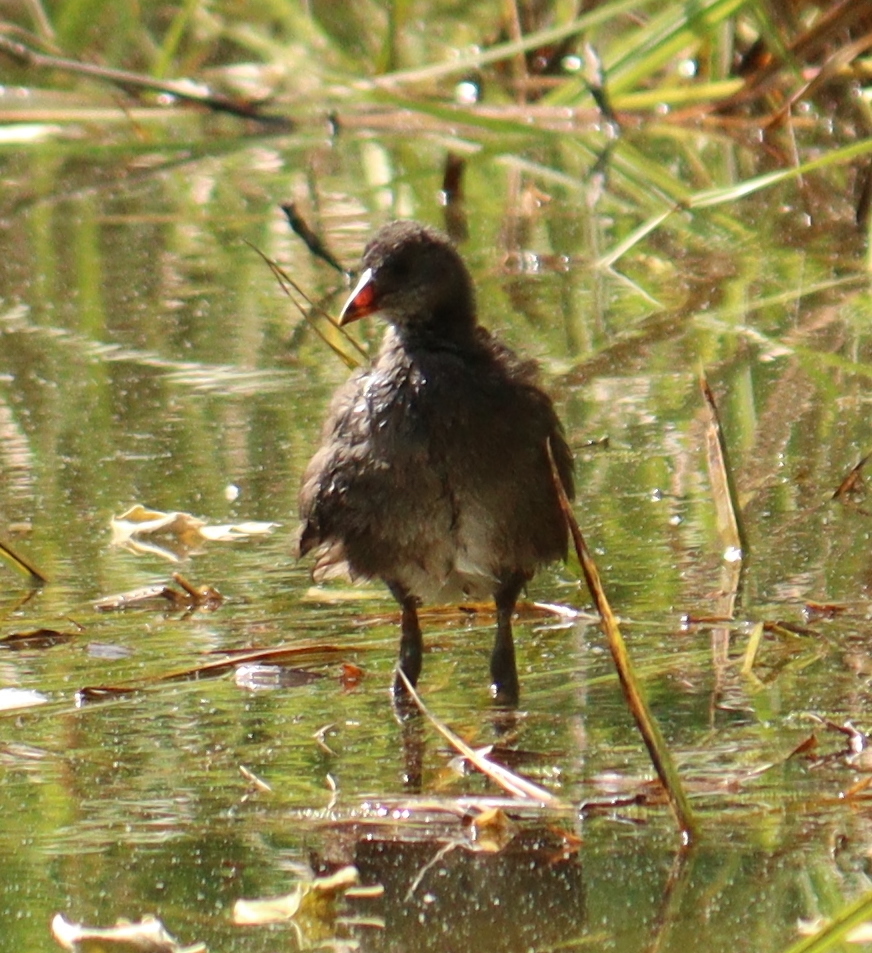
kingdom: Animalia
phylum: Chordata
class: Aves
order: Gruiformes
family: Rallidae
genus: Gallinula
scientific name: Gallinula chloropus
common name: Common moorhen
